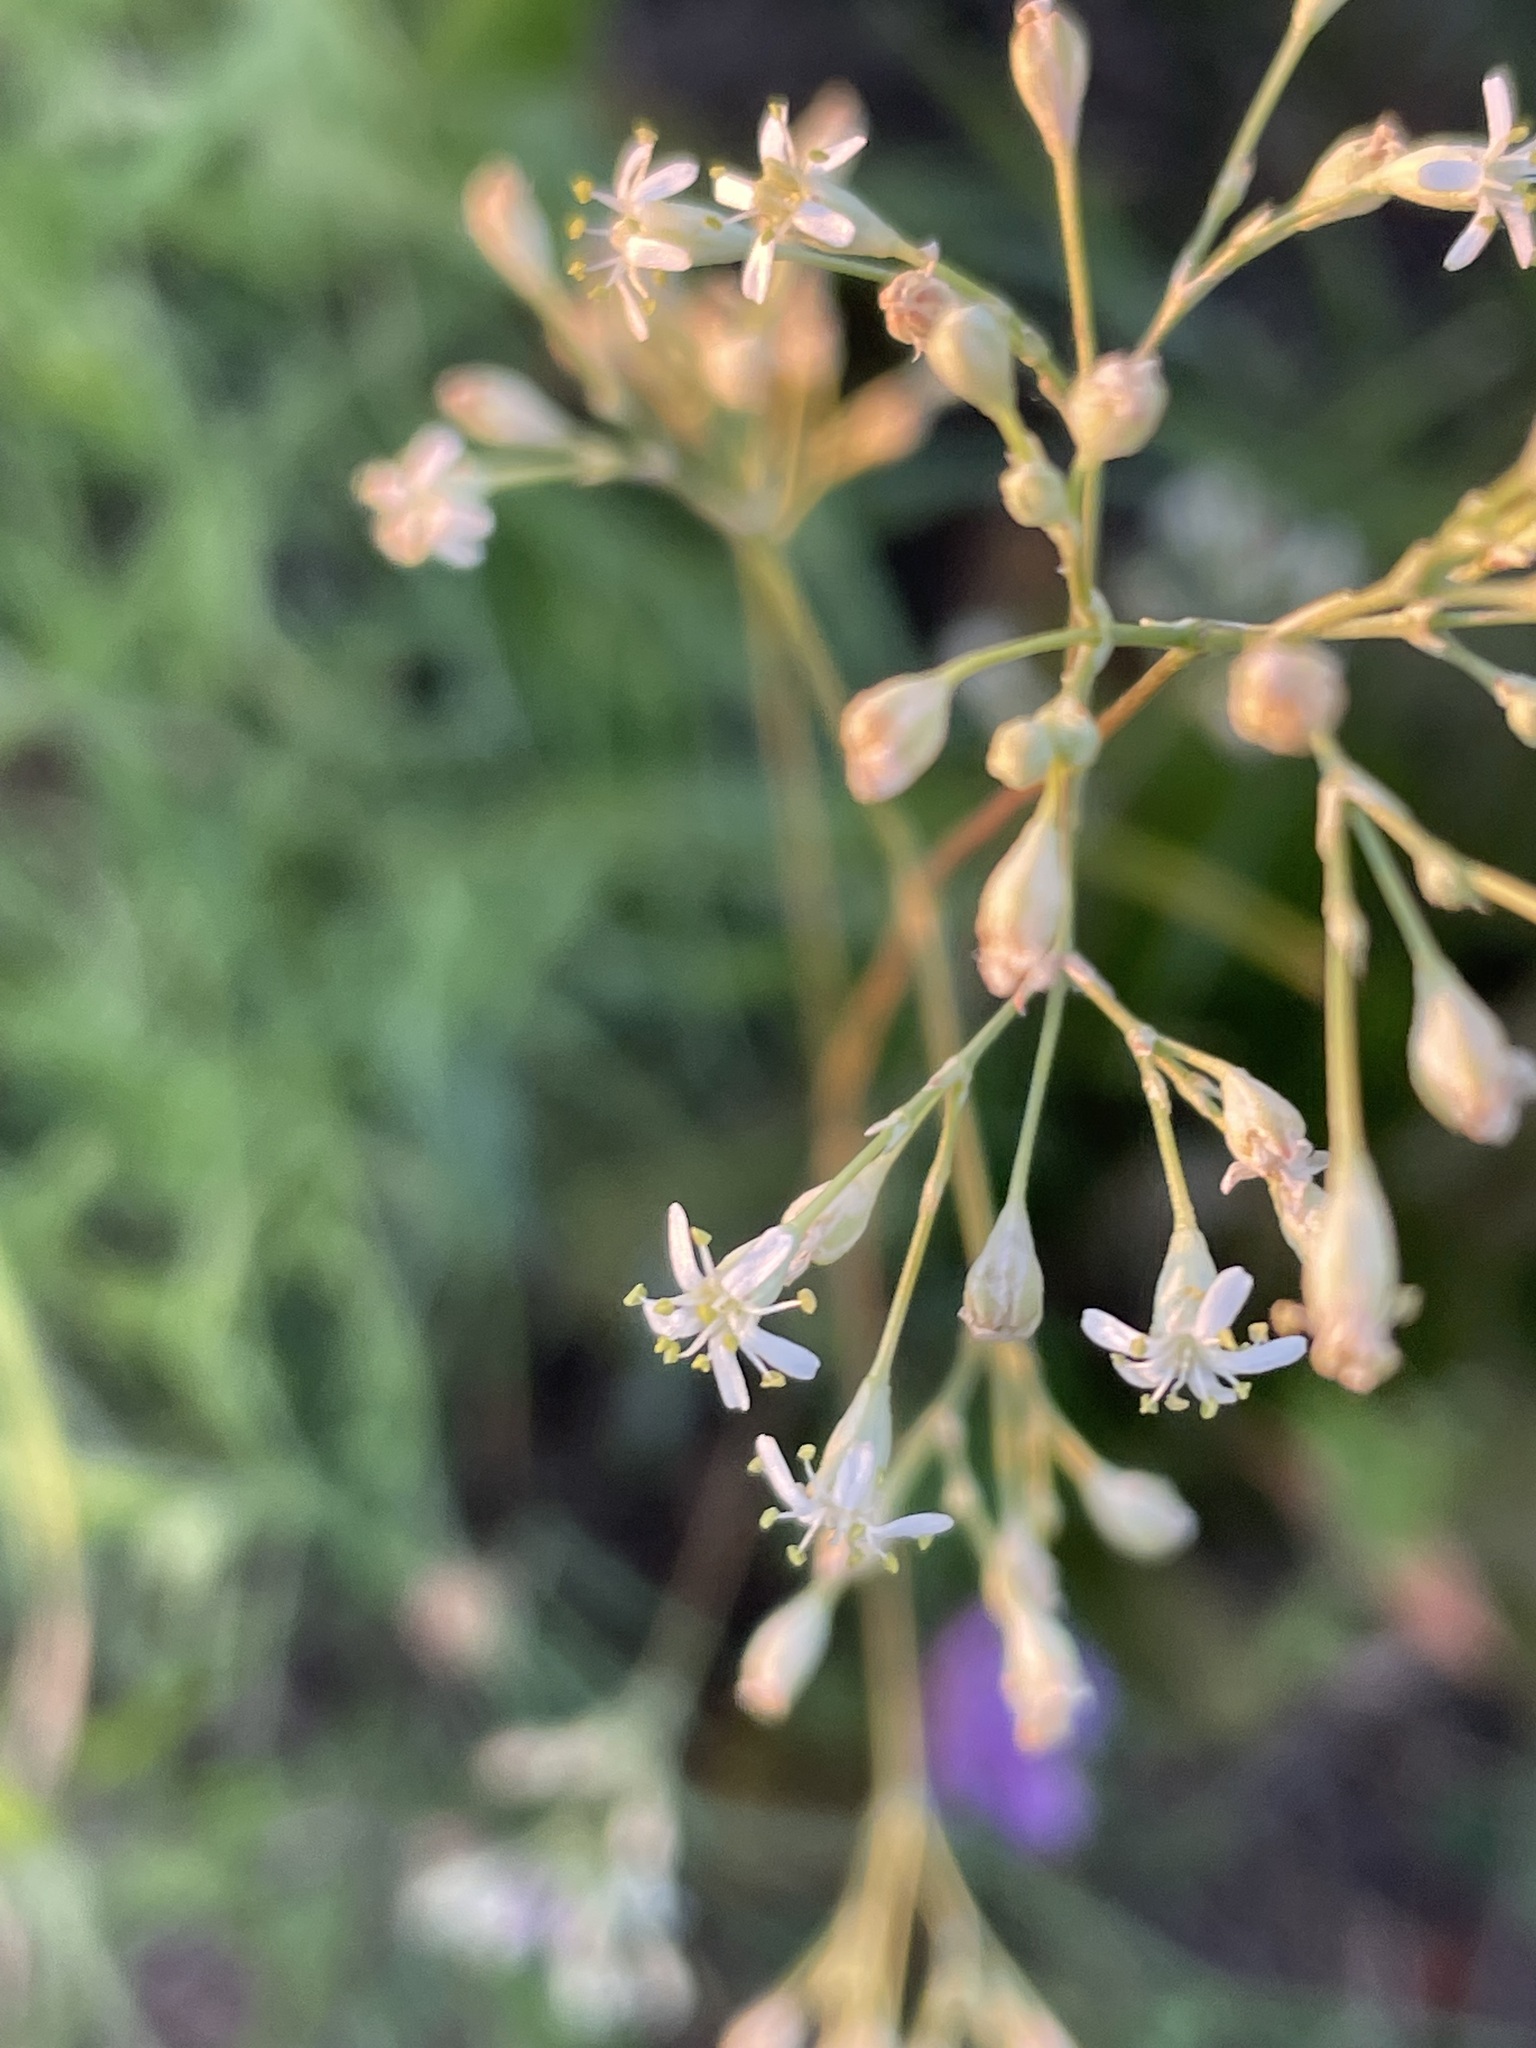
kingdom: Plantae
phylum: Tracheophyta
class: Magnoliopsida
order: Caryophyllales
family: Caryophyllaceae
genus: Silene
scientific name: Silene wolgensis
